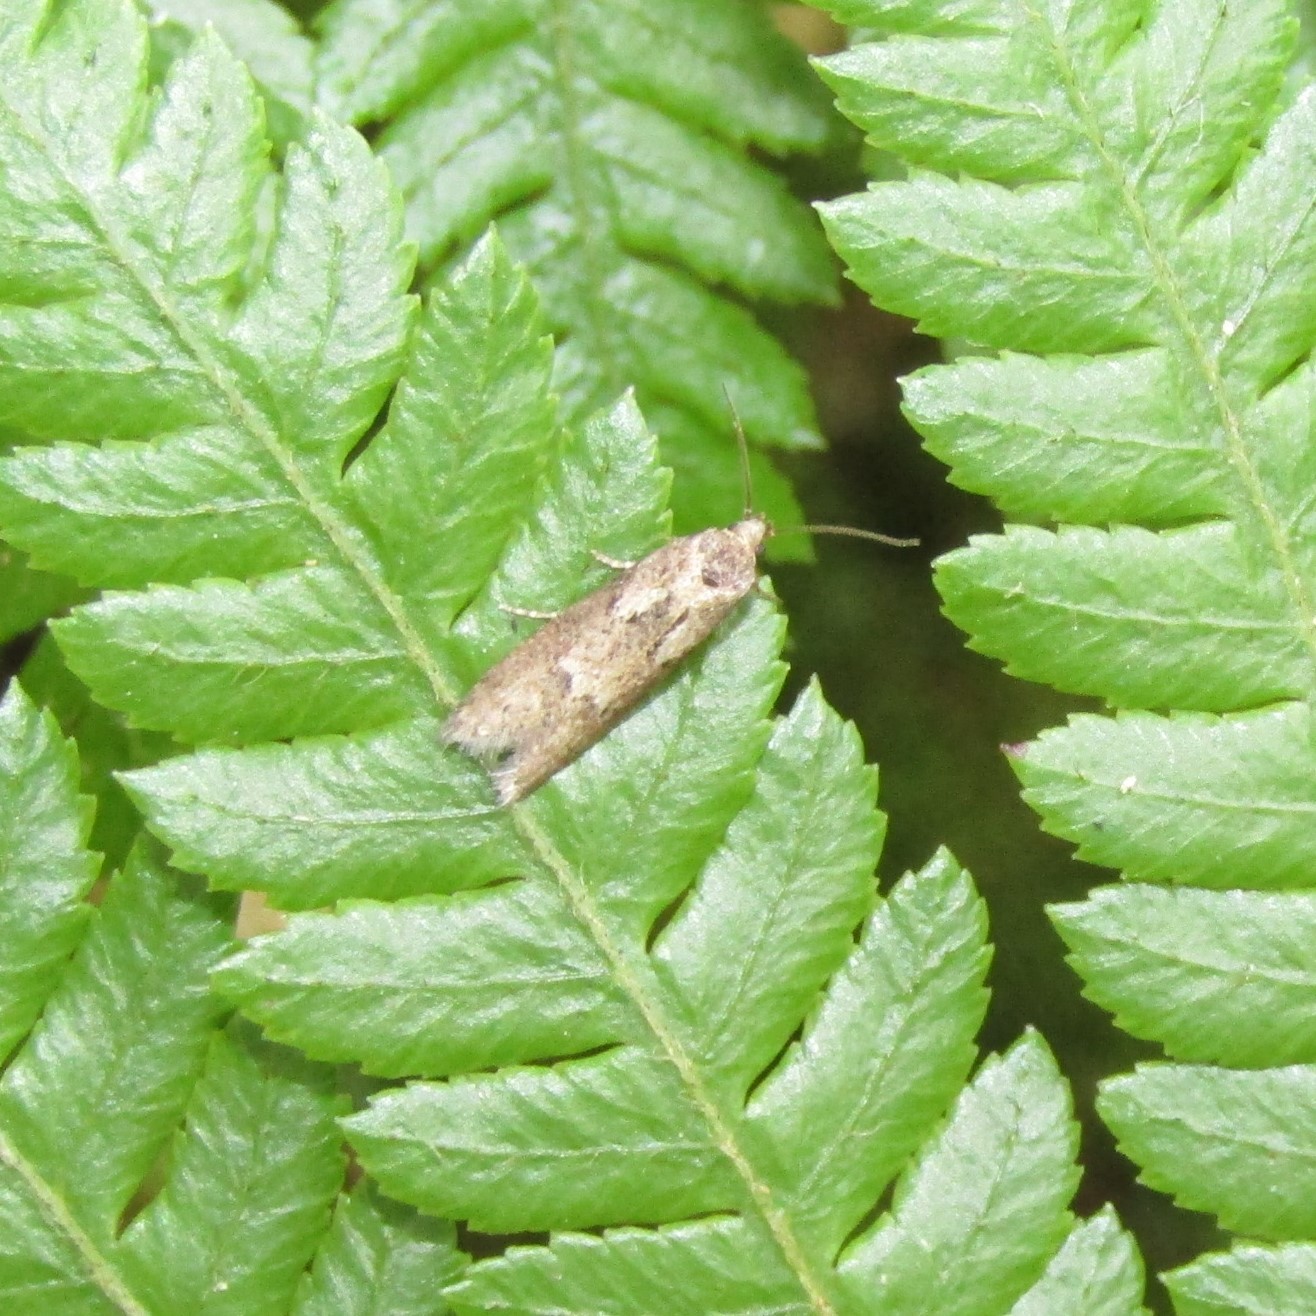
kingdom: Animalia
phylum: Arthropoda
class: Insecta
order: Lepidoptera
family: Oecophoridae
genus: Chersadaula
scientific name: Chersadaula ochrogastra
